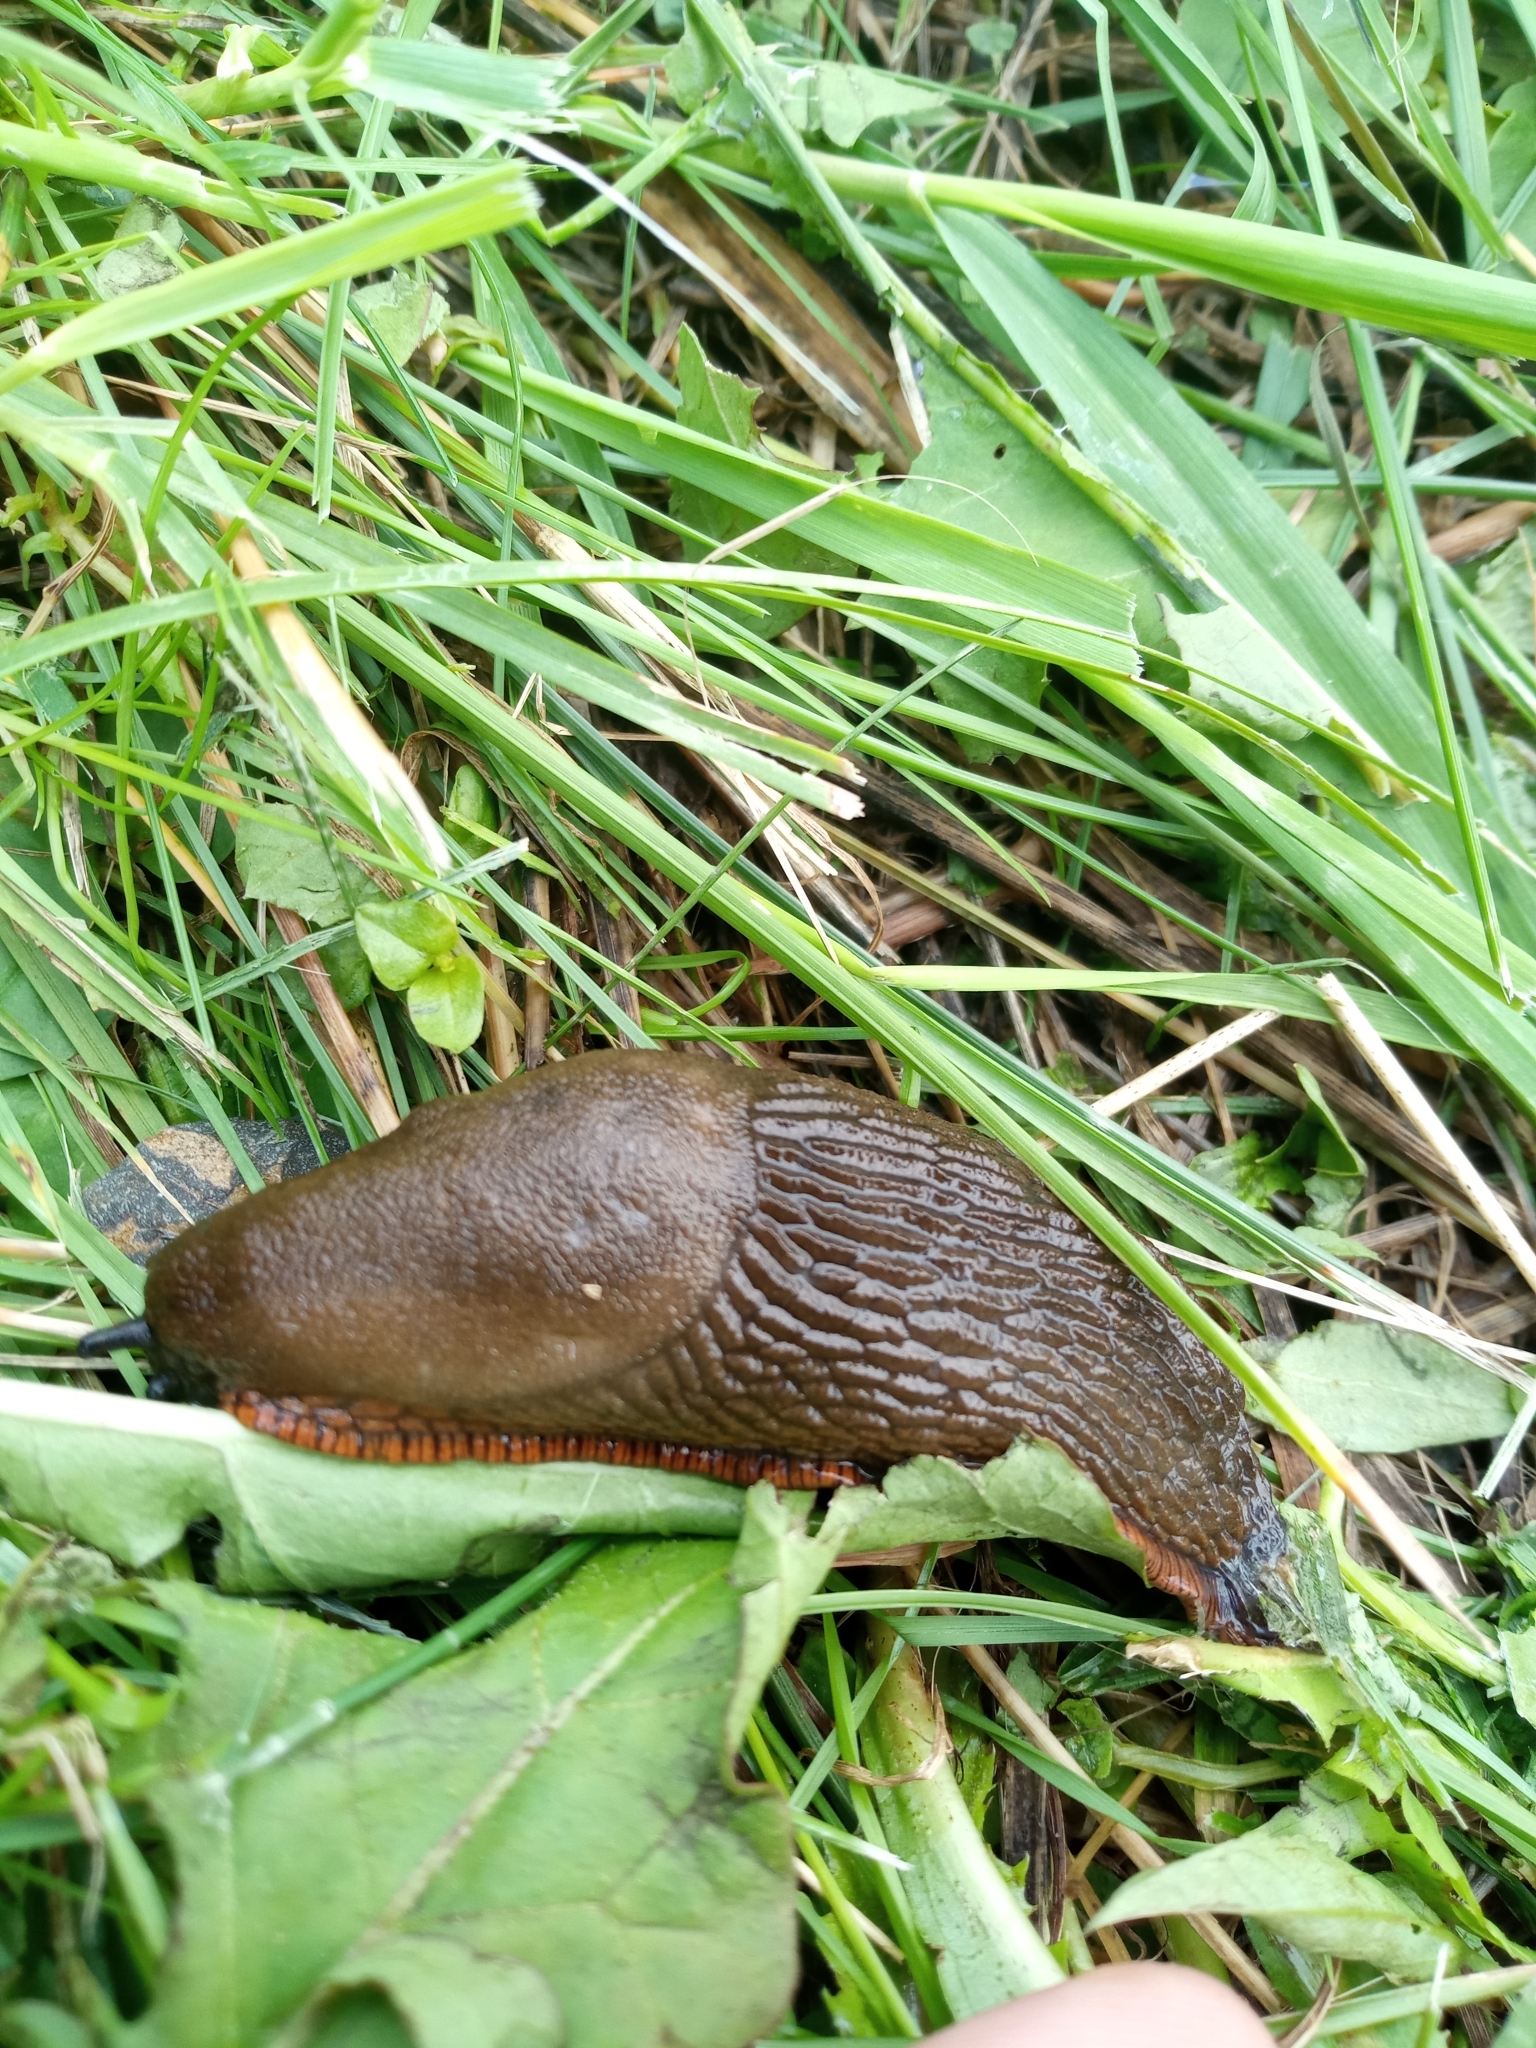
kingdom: Animalia
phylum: Mollusca
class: Gastropoda
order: Stylommatophora
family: Arionidae
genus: Arion
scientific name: Arion
